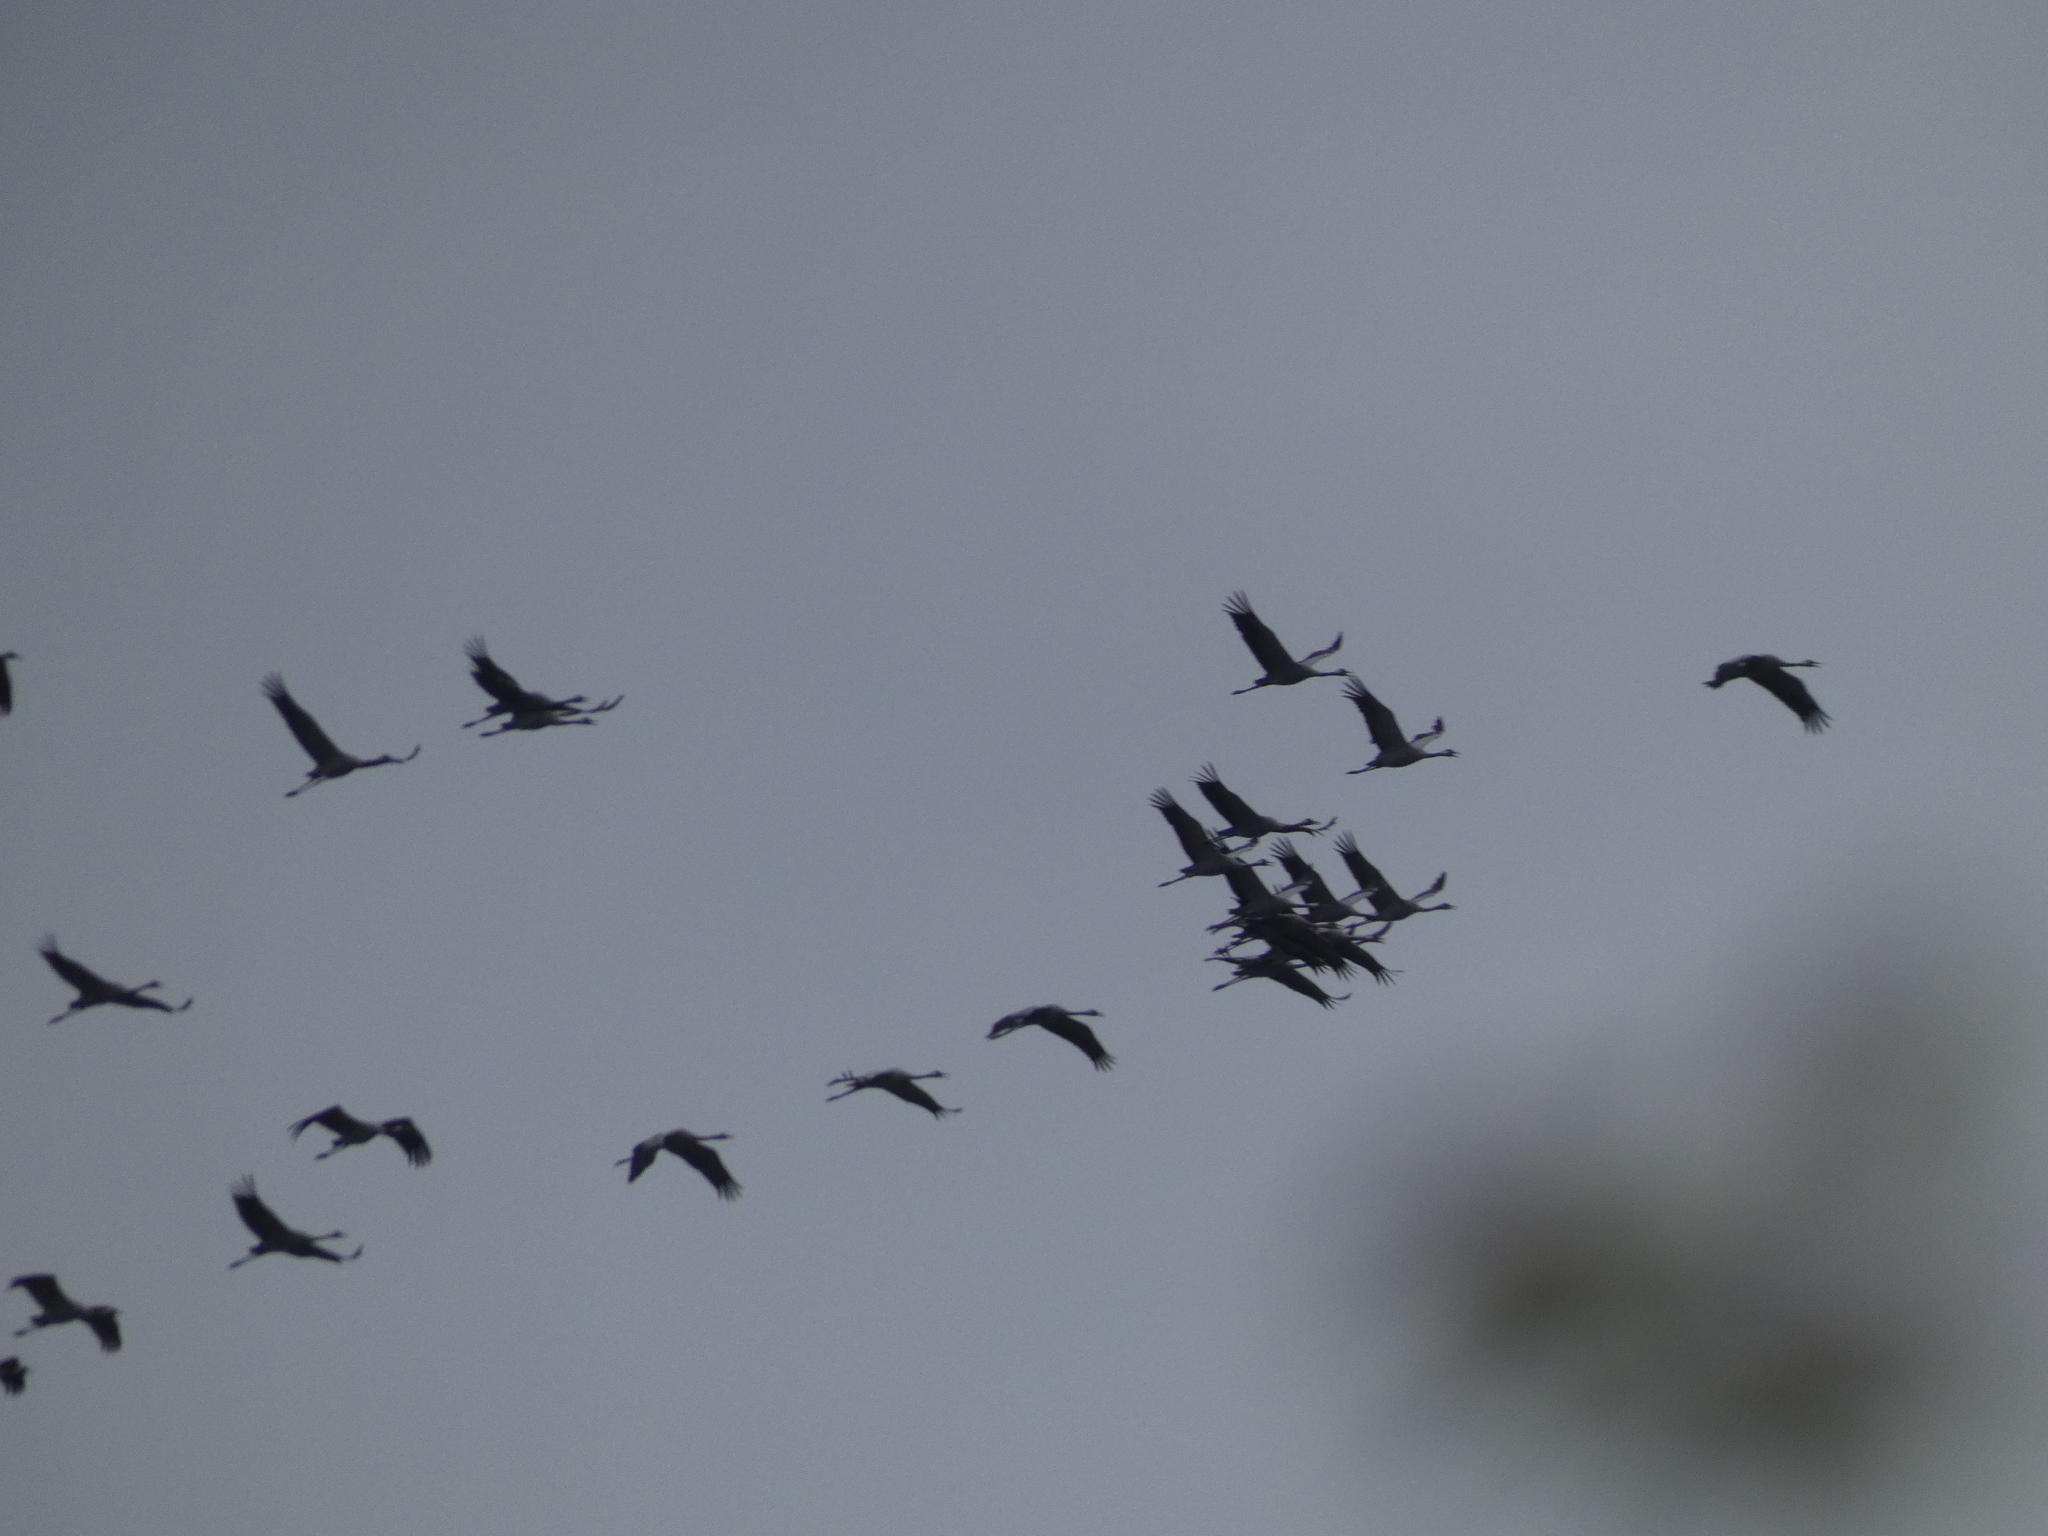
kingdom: Animalia
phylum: Chordata
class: Aves
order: Gruiformes
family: Gruidae
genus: Grus
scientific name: Grus grus
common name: Common crane
